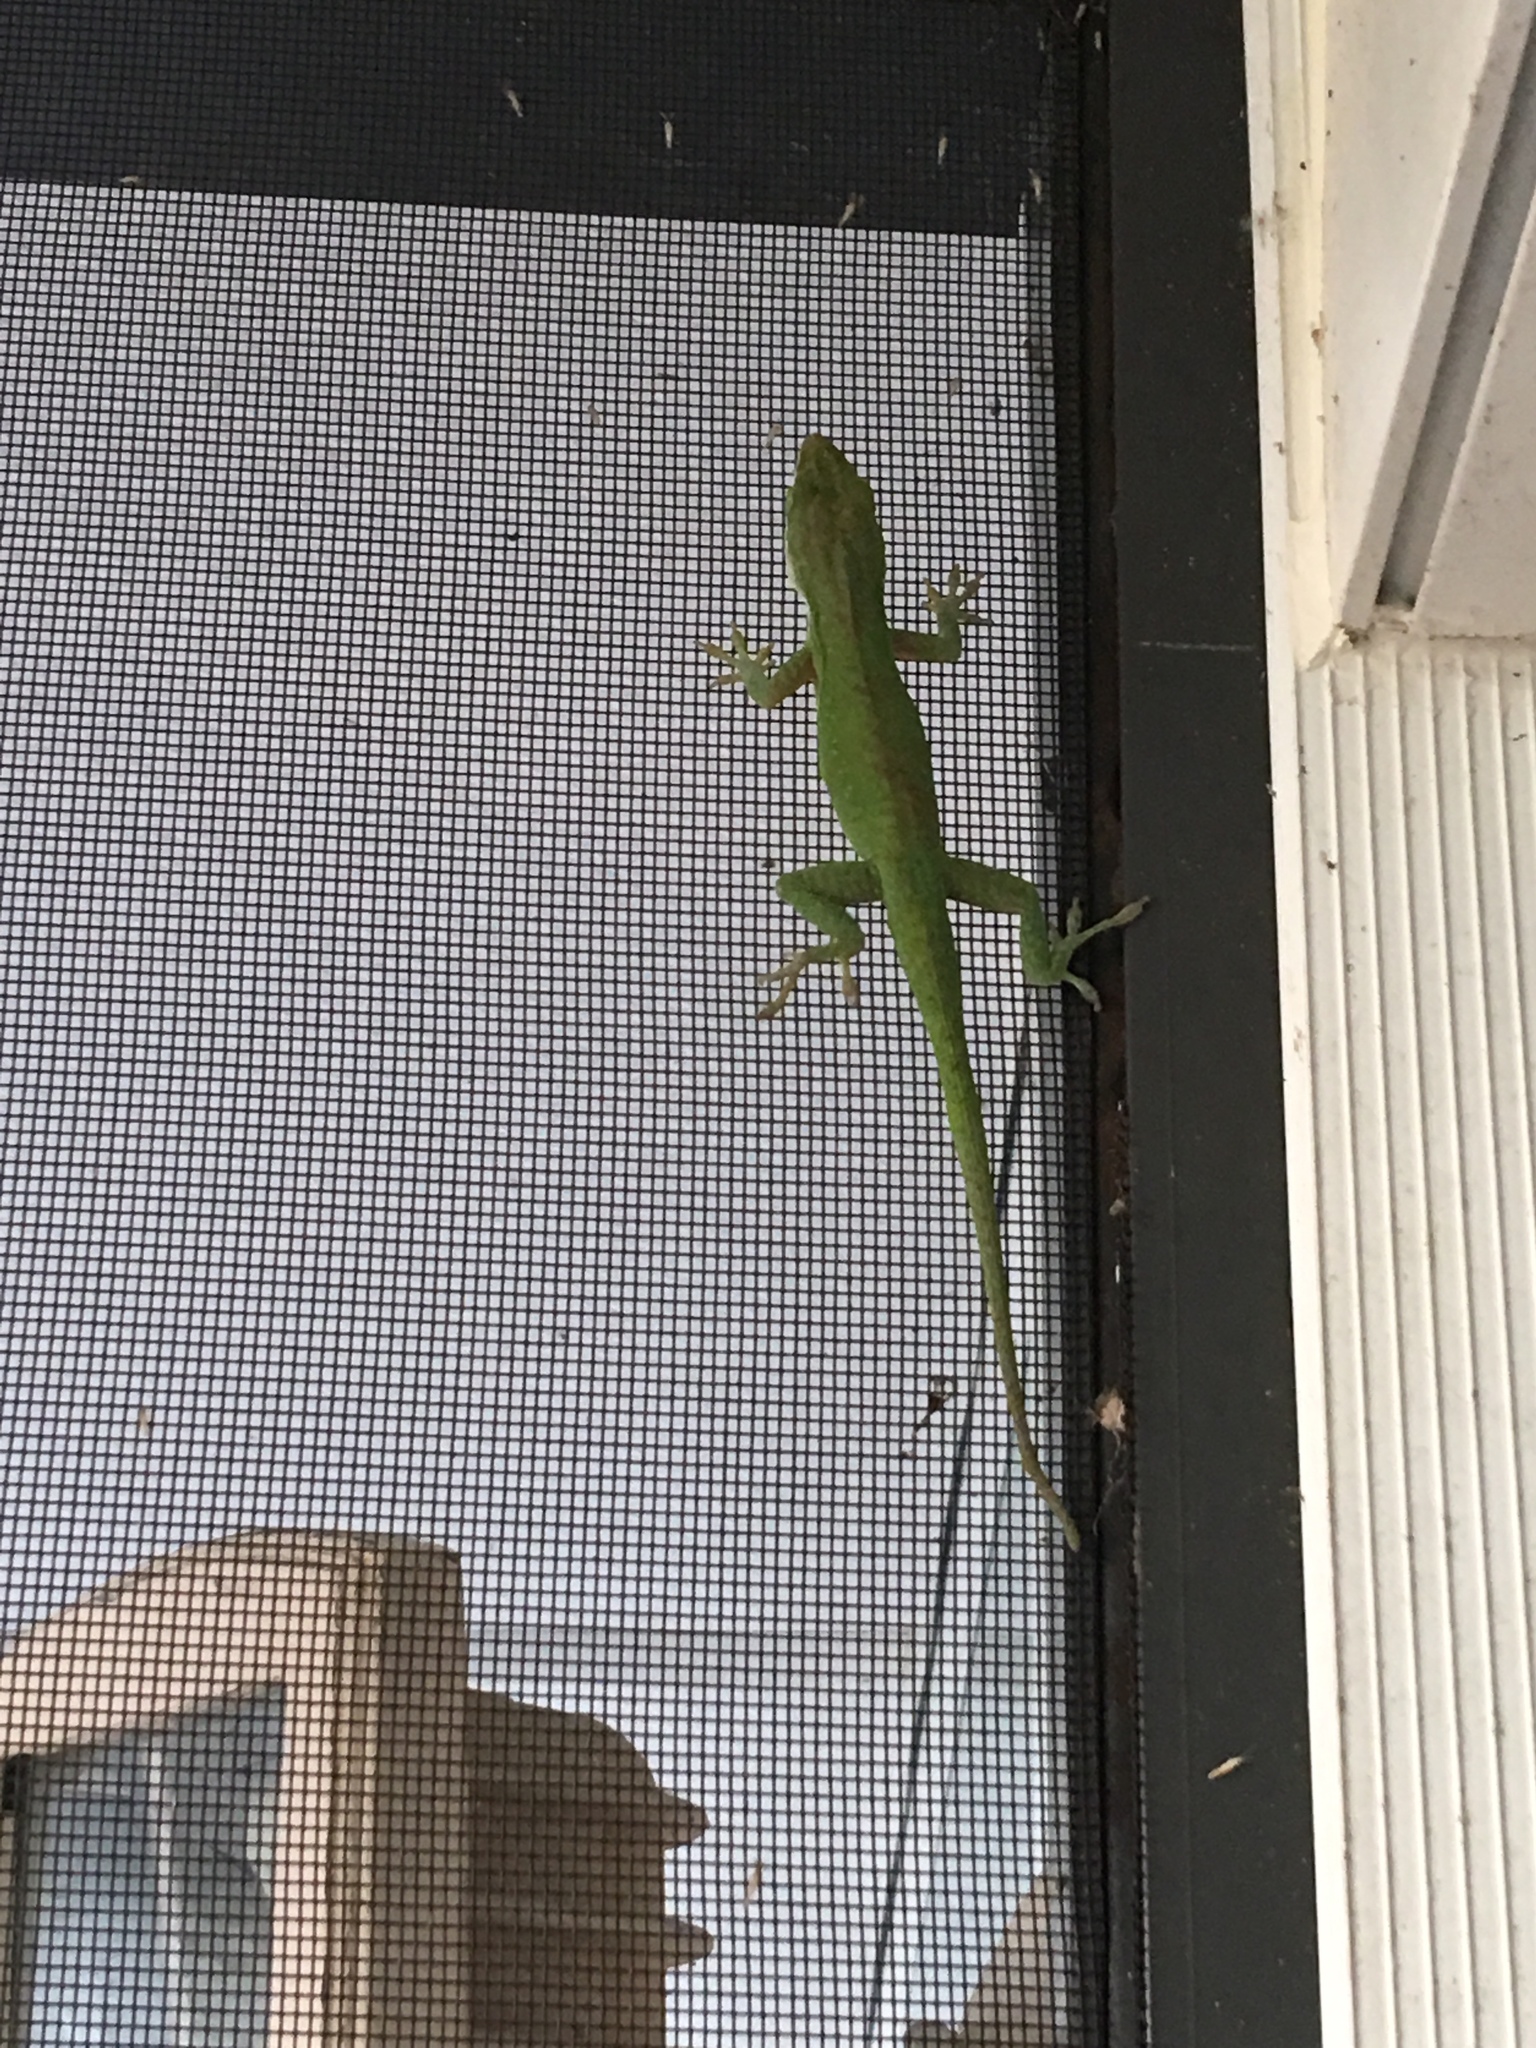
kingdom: Animalia
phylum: Chordata
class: Squamata
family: Dactyloidae
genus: Anolis
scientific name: Anolis carolinensis
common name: Green anole
